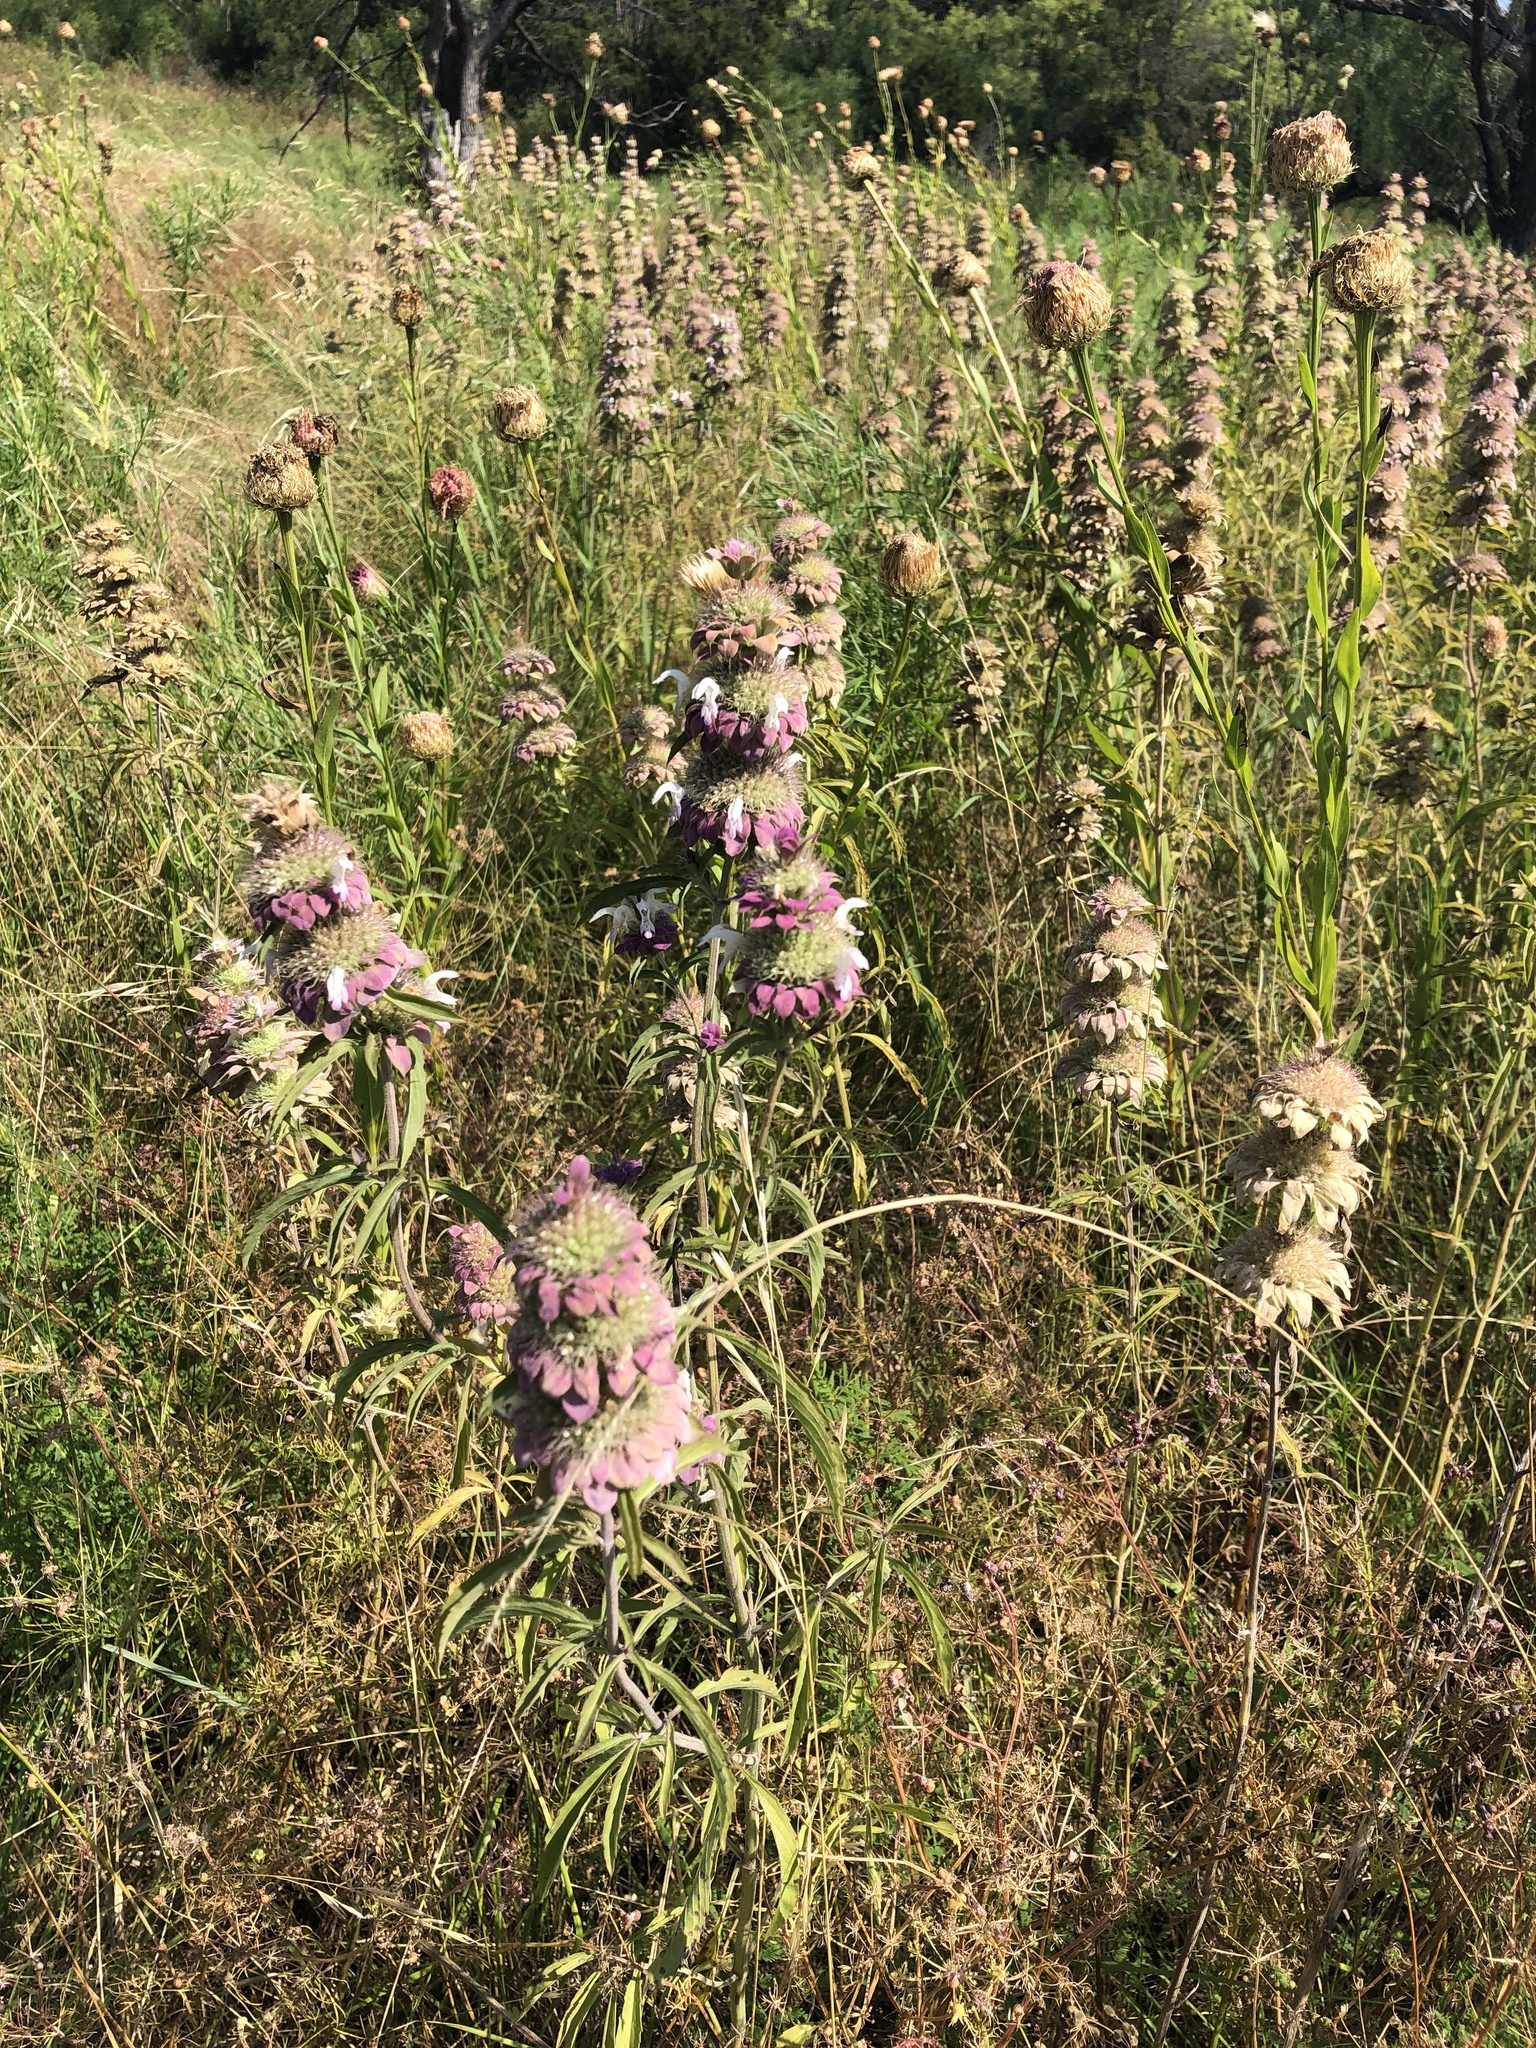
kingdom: Plantae
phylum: Tracheophyta
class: Magnoliopsida
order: Lamiales
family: Lamiaceae
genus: Monarda
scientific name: Monarda citriodora
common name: Lemon beebalm
